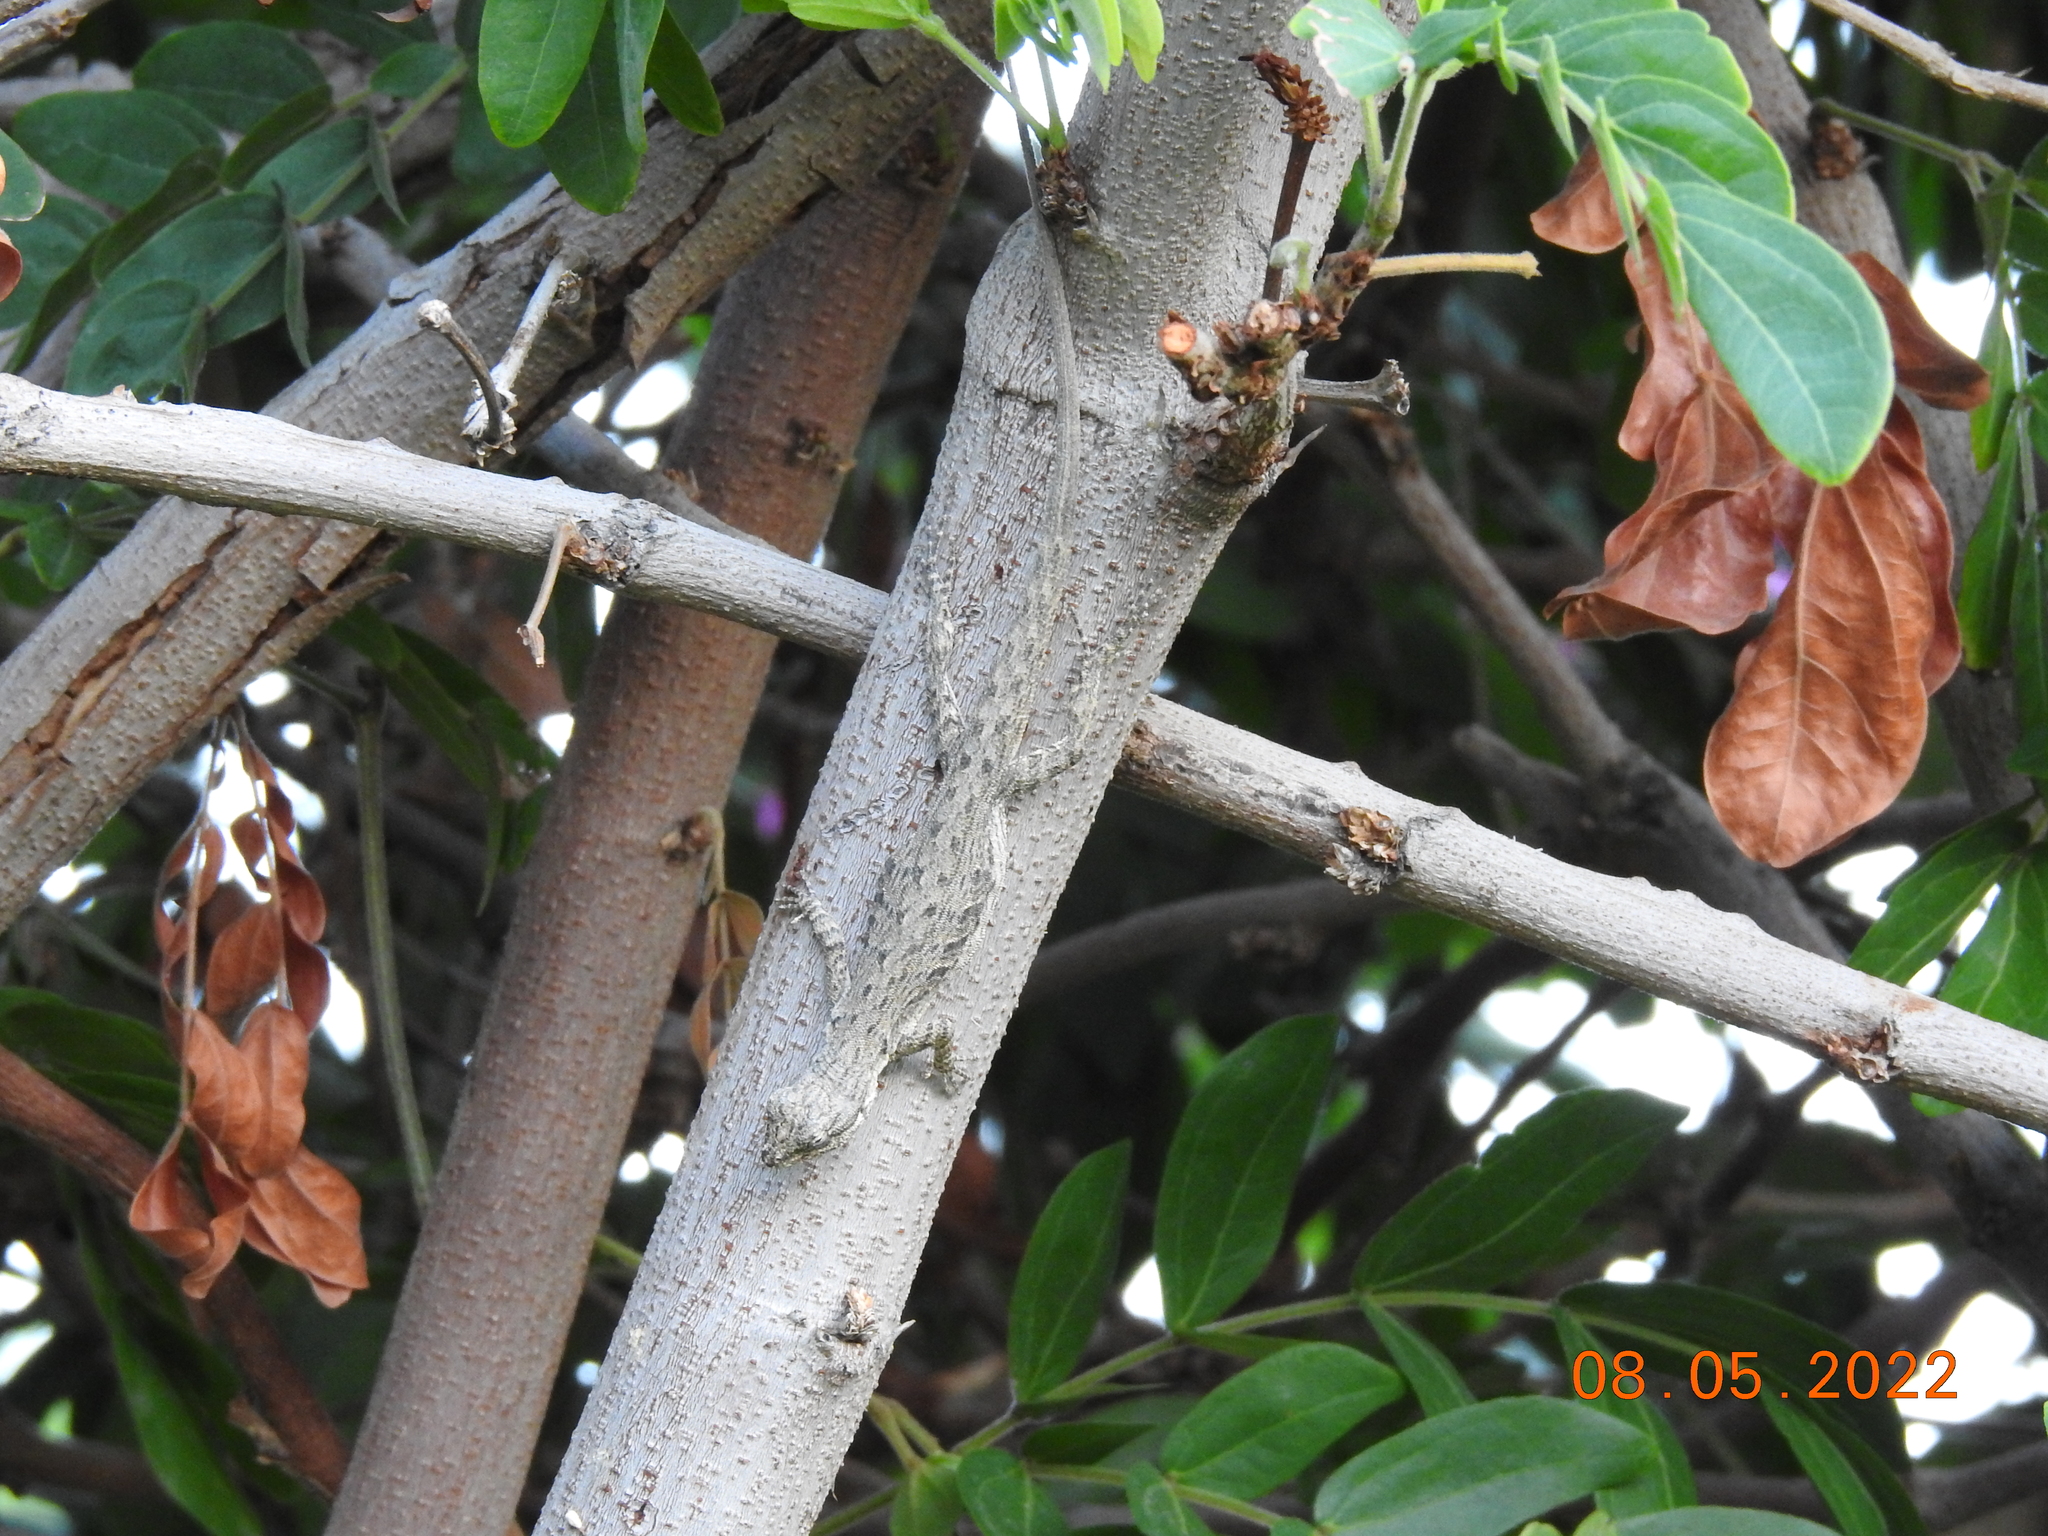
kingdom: Animalia
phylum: Chordata
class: Squamata
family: Phrynosomatidae
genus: Urosaurus
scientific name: Urosaurus graciosus
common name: Long-tailed brush lizard
